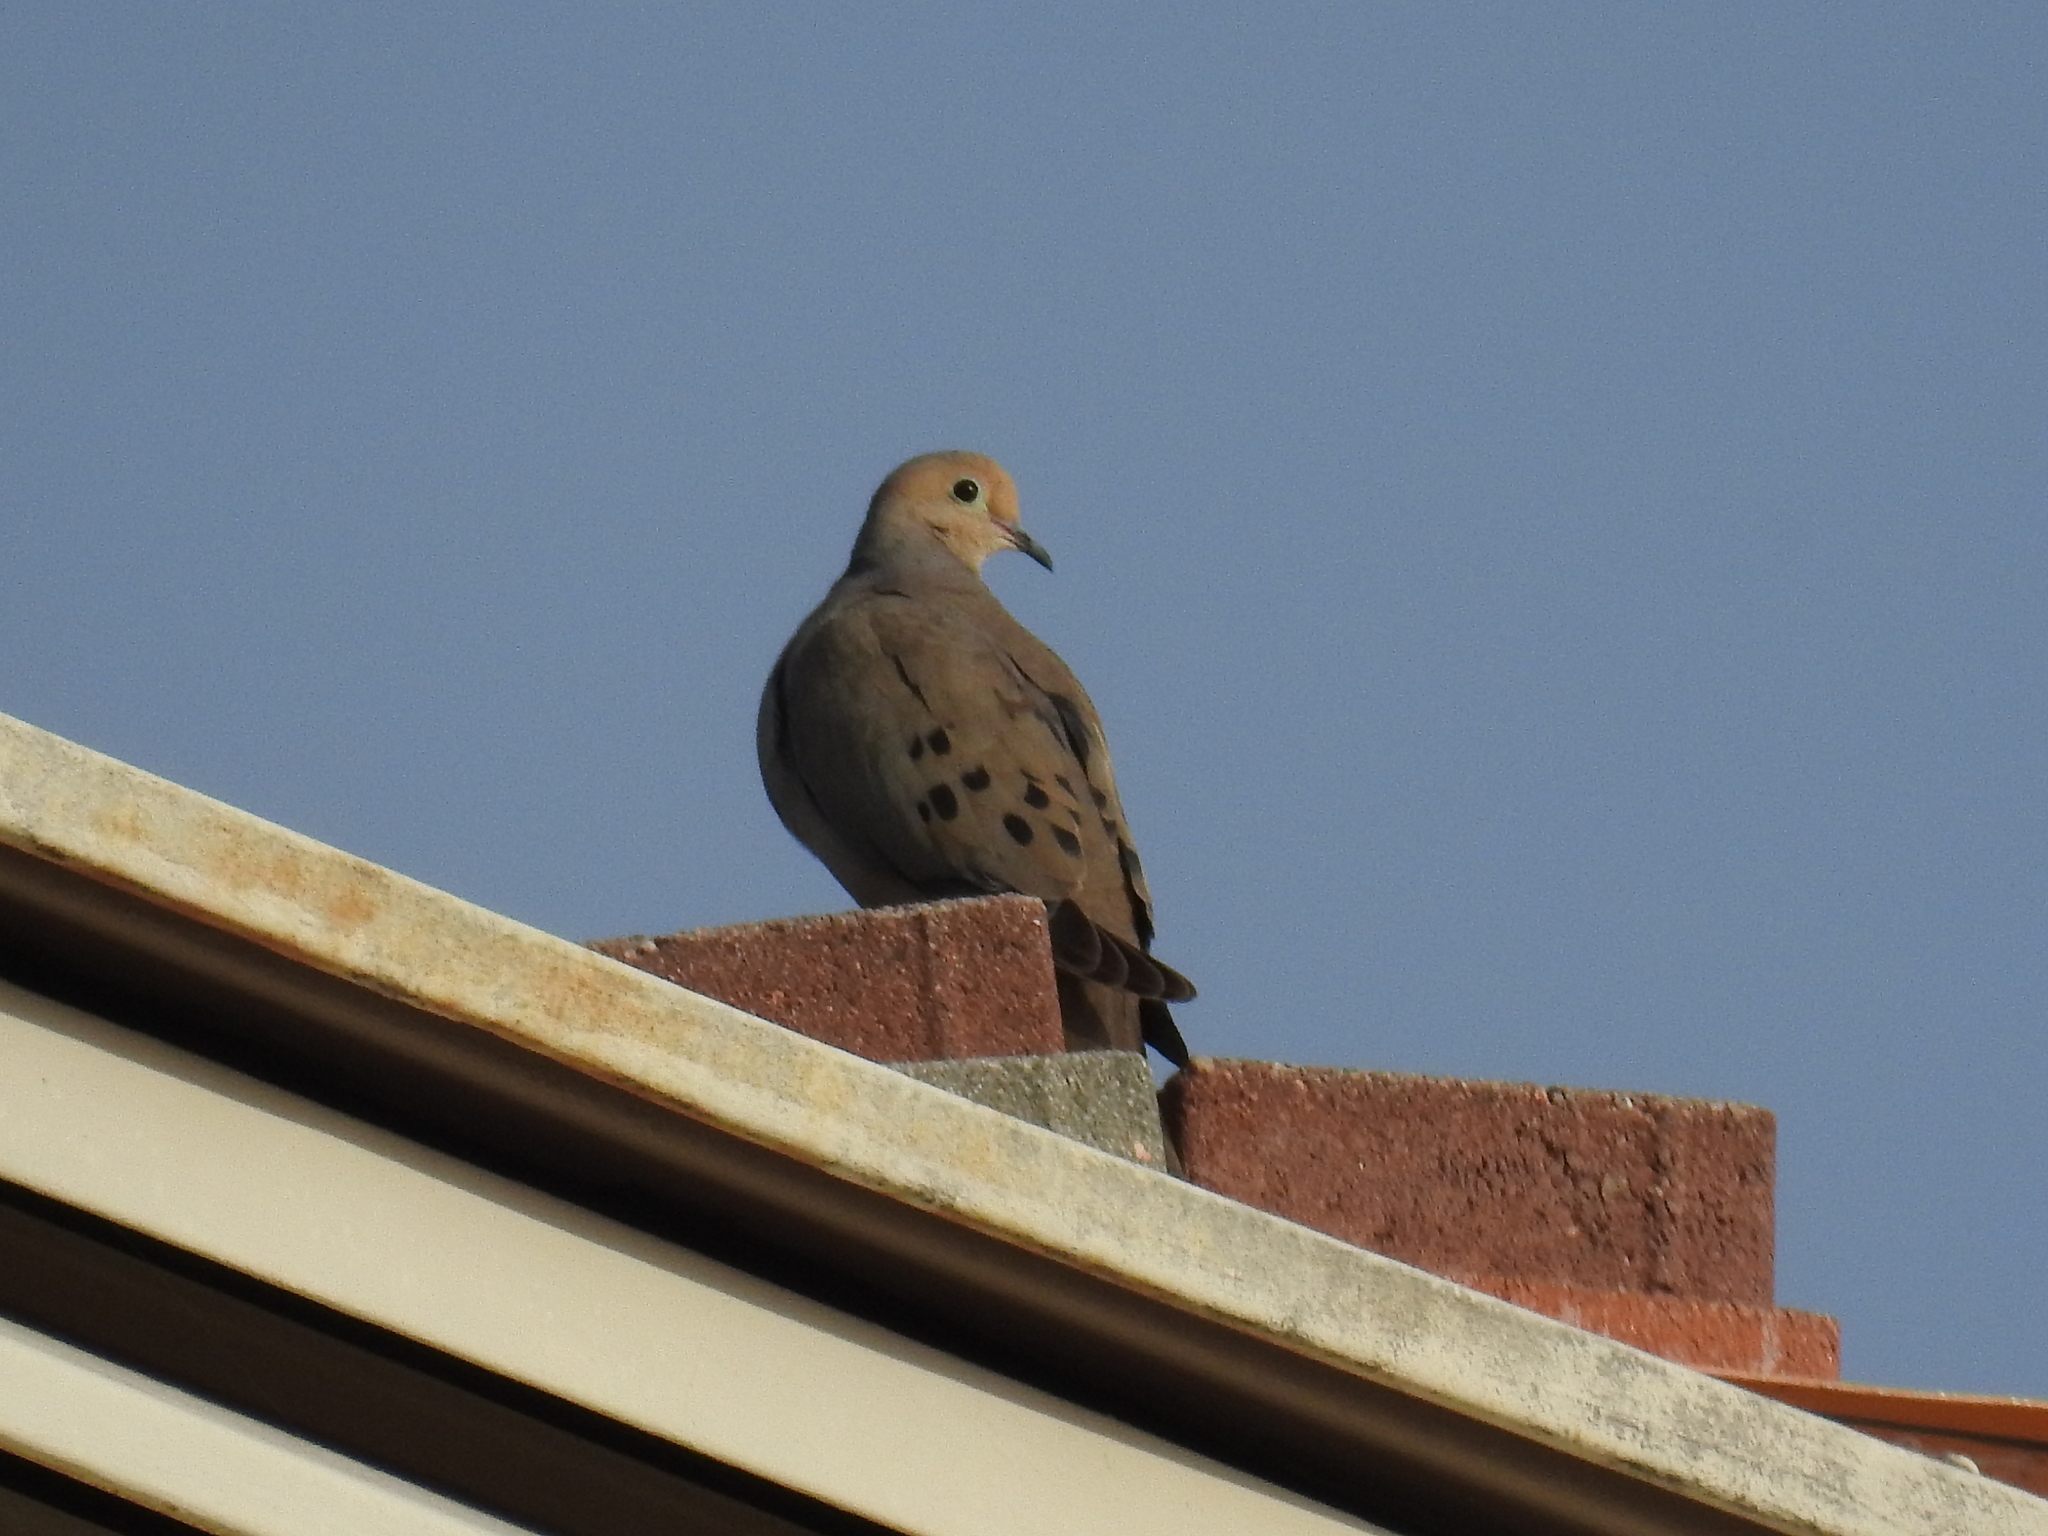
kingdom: Animalia
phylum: Chordata
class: Aves
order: Columbiformes
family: Columbidae
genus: Zenaida
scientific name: Zenaida macroura
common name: Mourning dove
